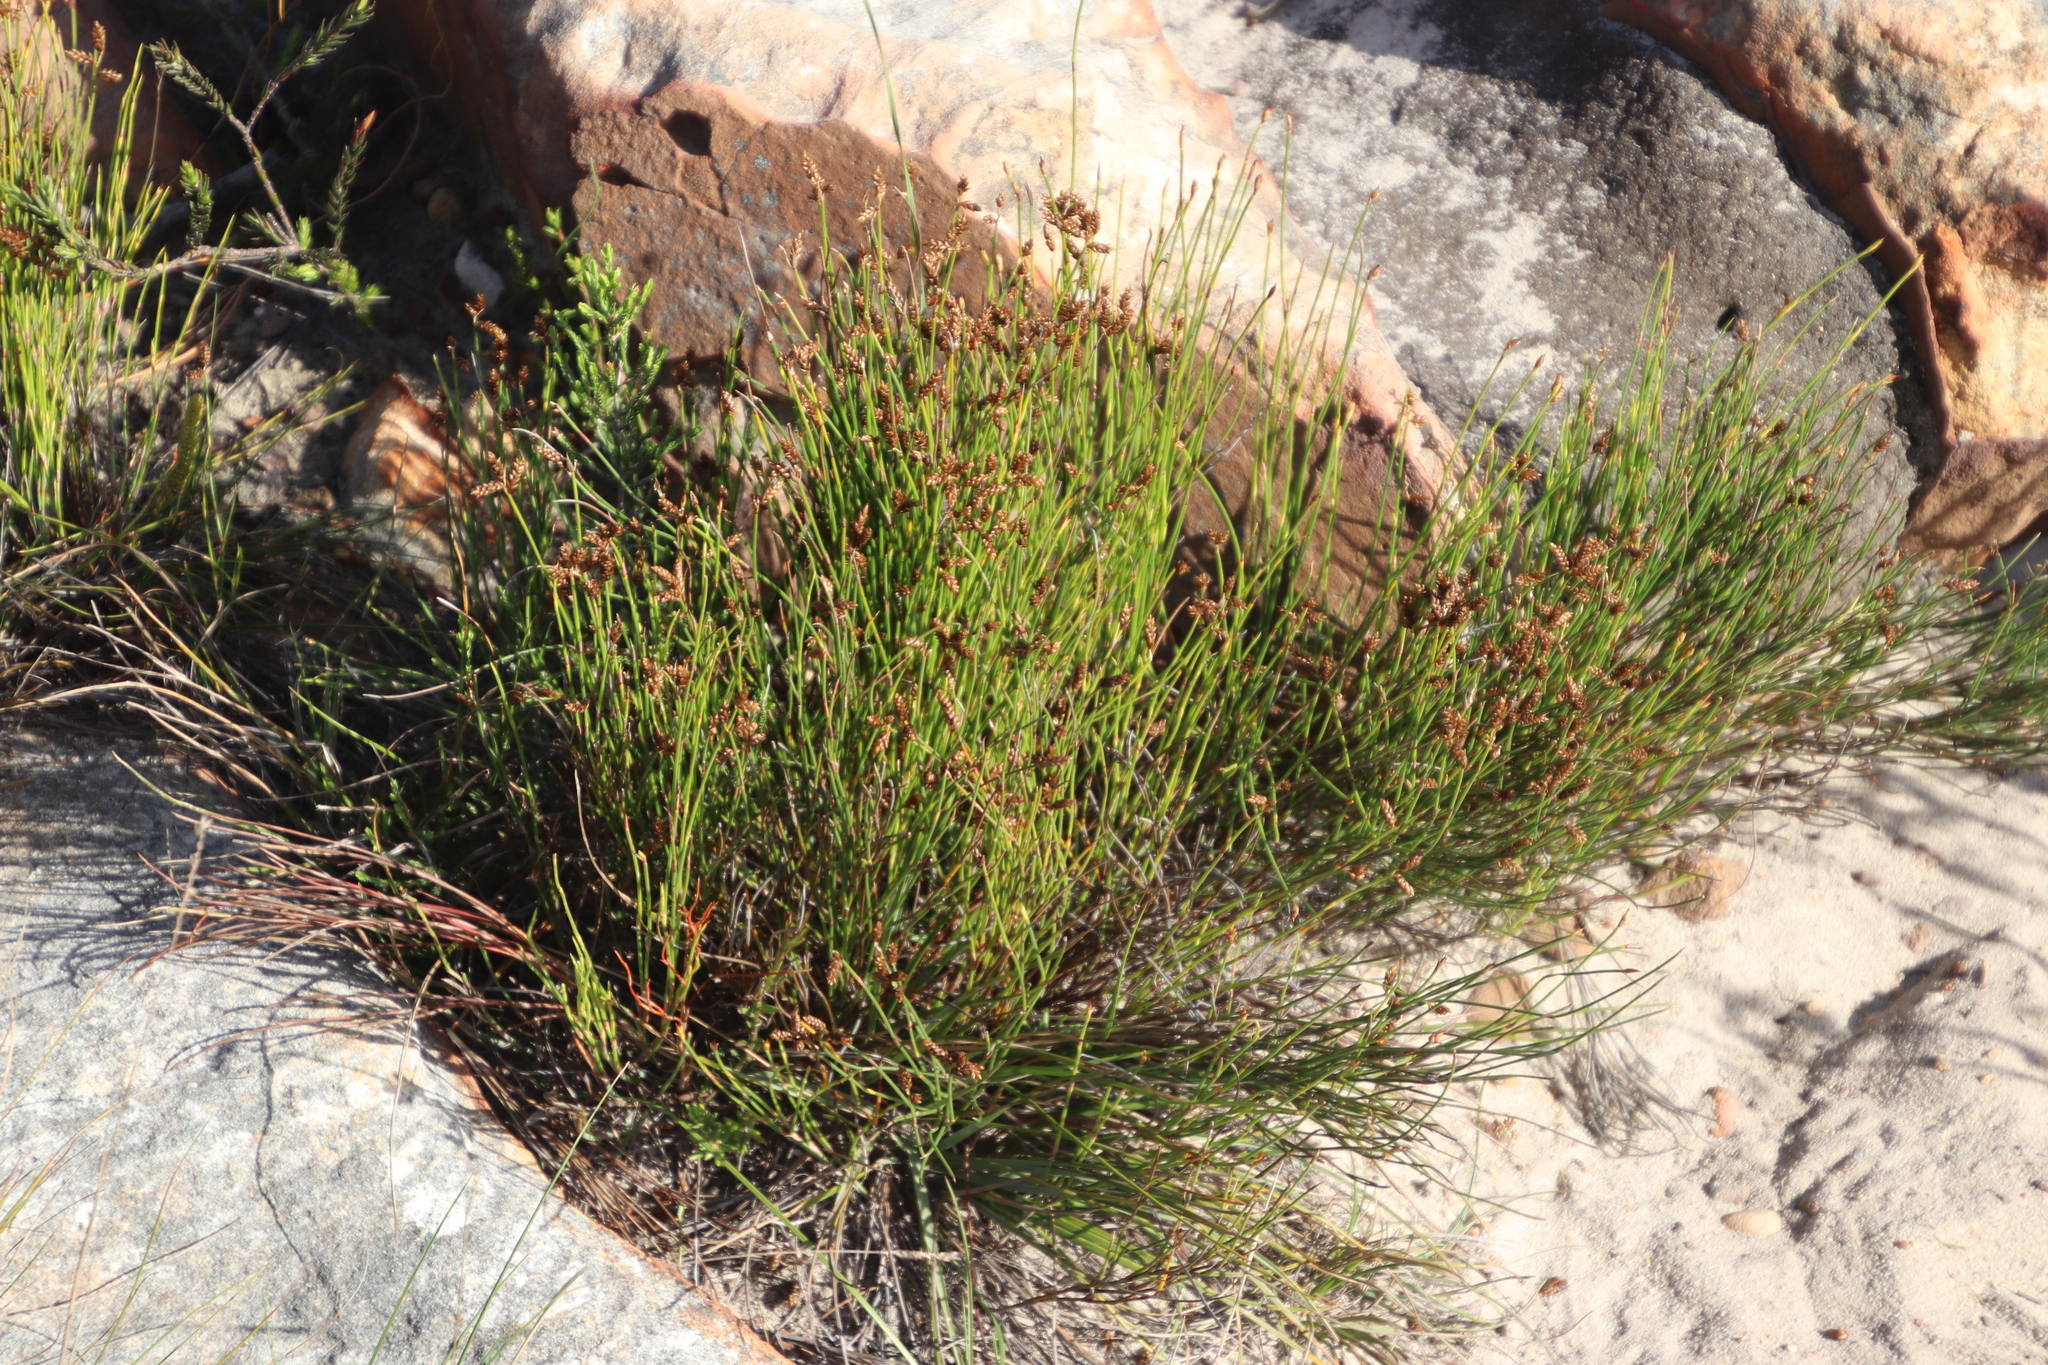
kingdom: Plantae
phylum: Tracheophyta
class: Liliopsida
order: Poales
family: Restionaceae
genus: Mastersiella
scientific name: Mastersiella digitata
